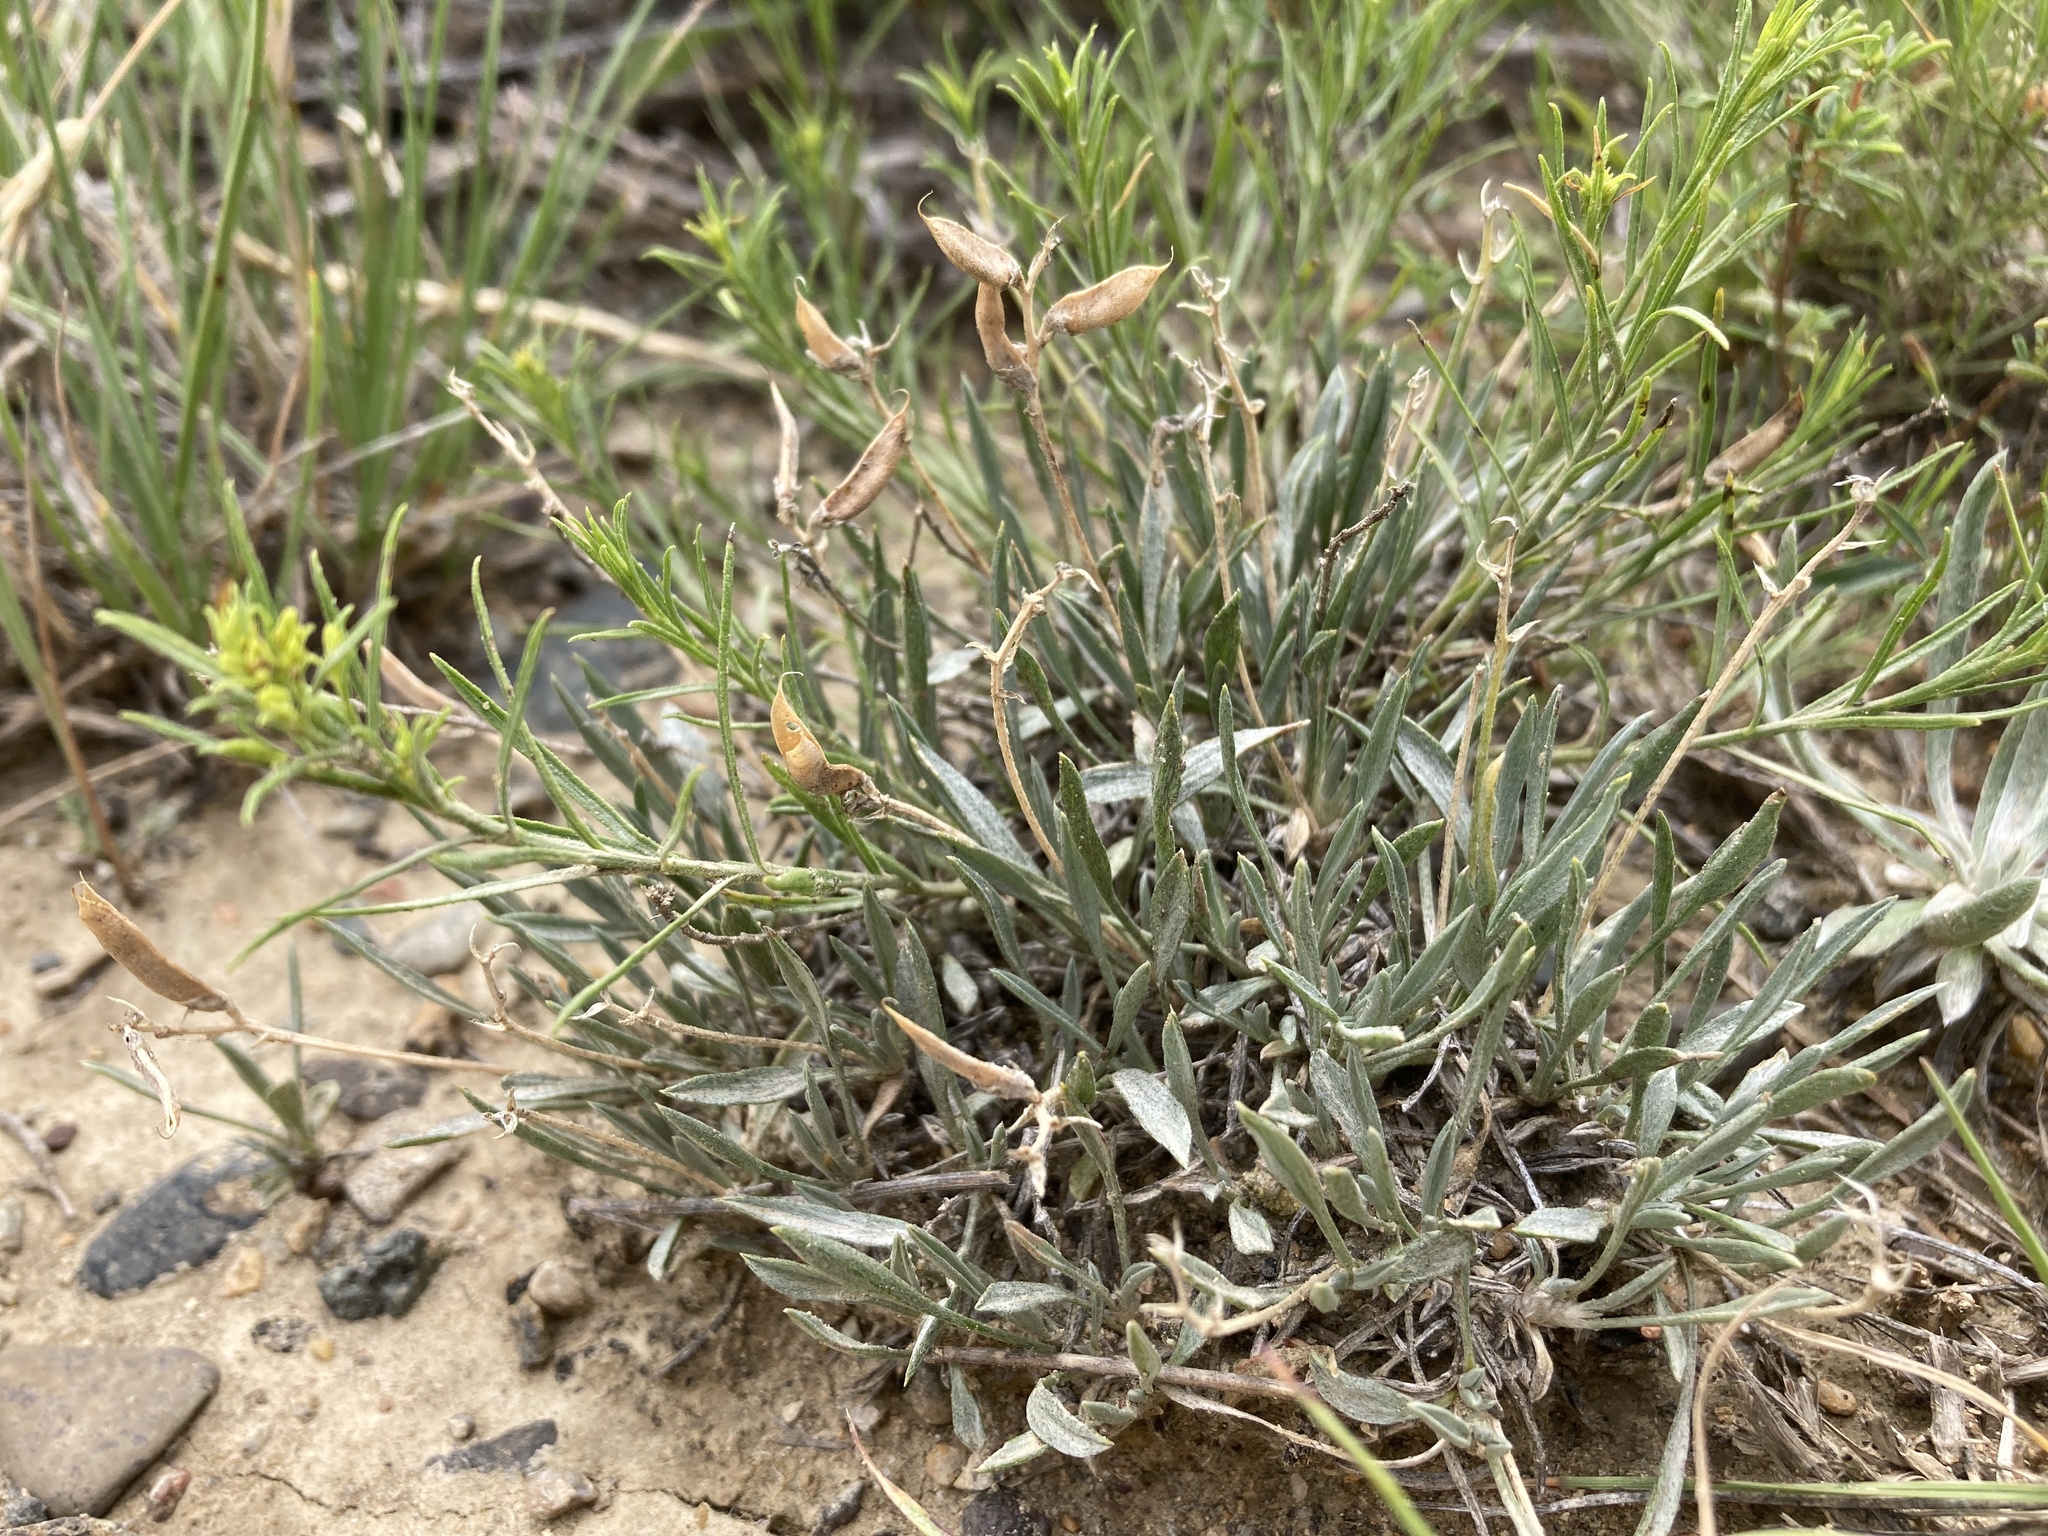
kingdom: Plantae
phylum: Tracheophyta
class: Magnoliopsida
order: Fabales
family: Fabaceae
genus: Astragalus
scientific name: Astragalus spatulatus
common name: Draba milk-vetch
